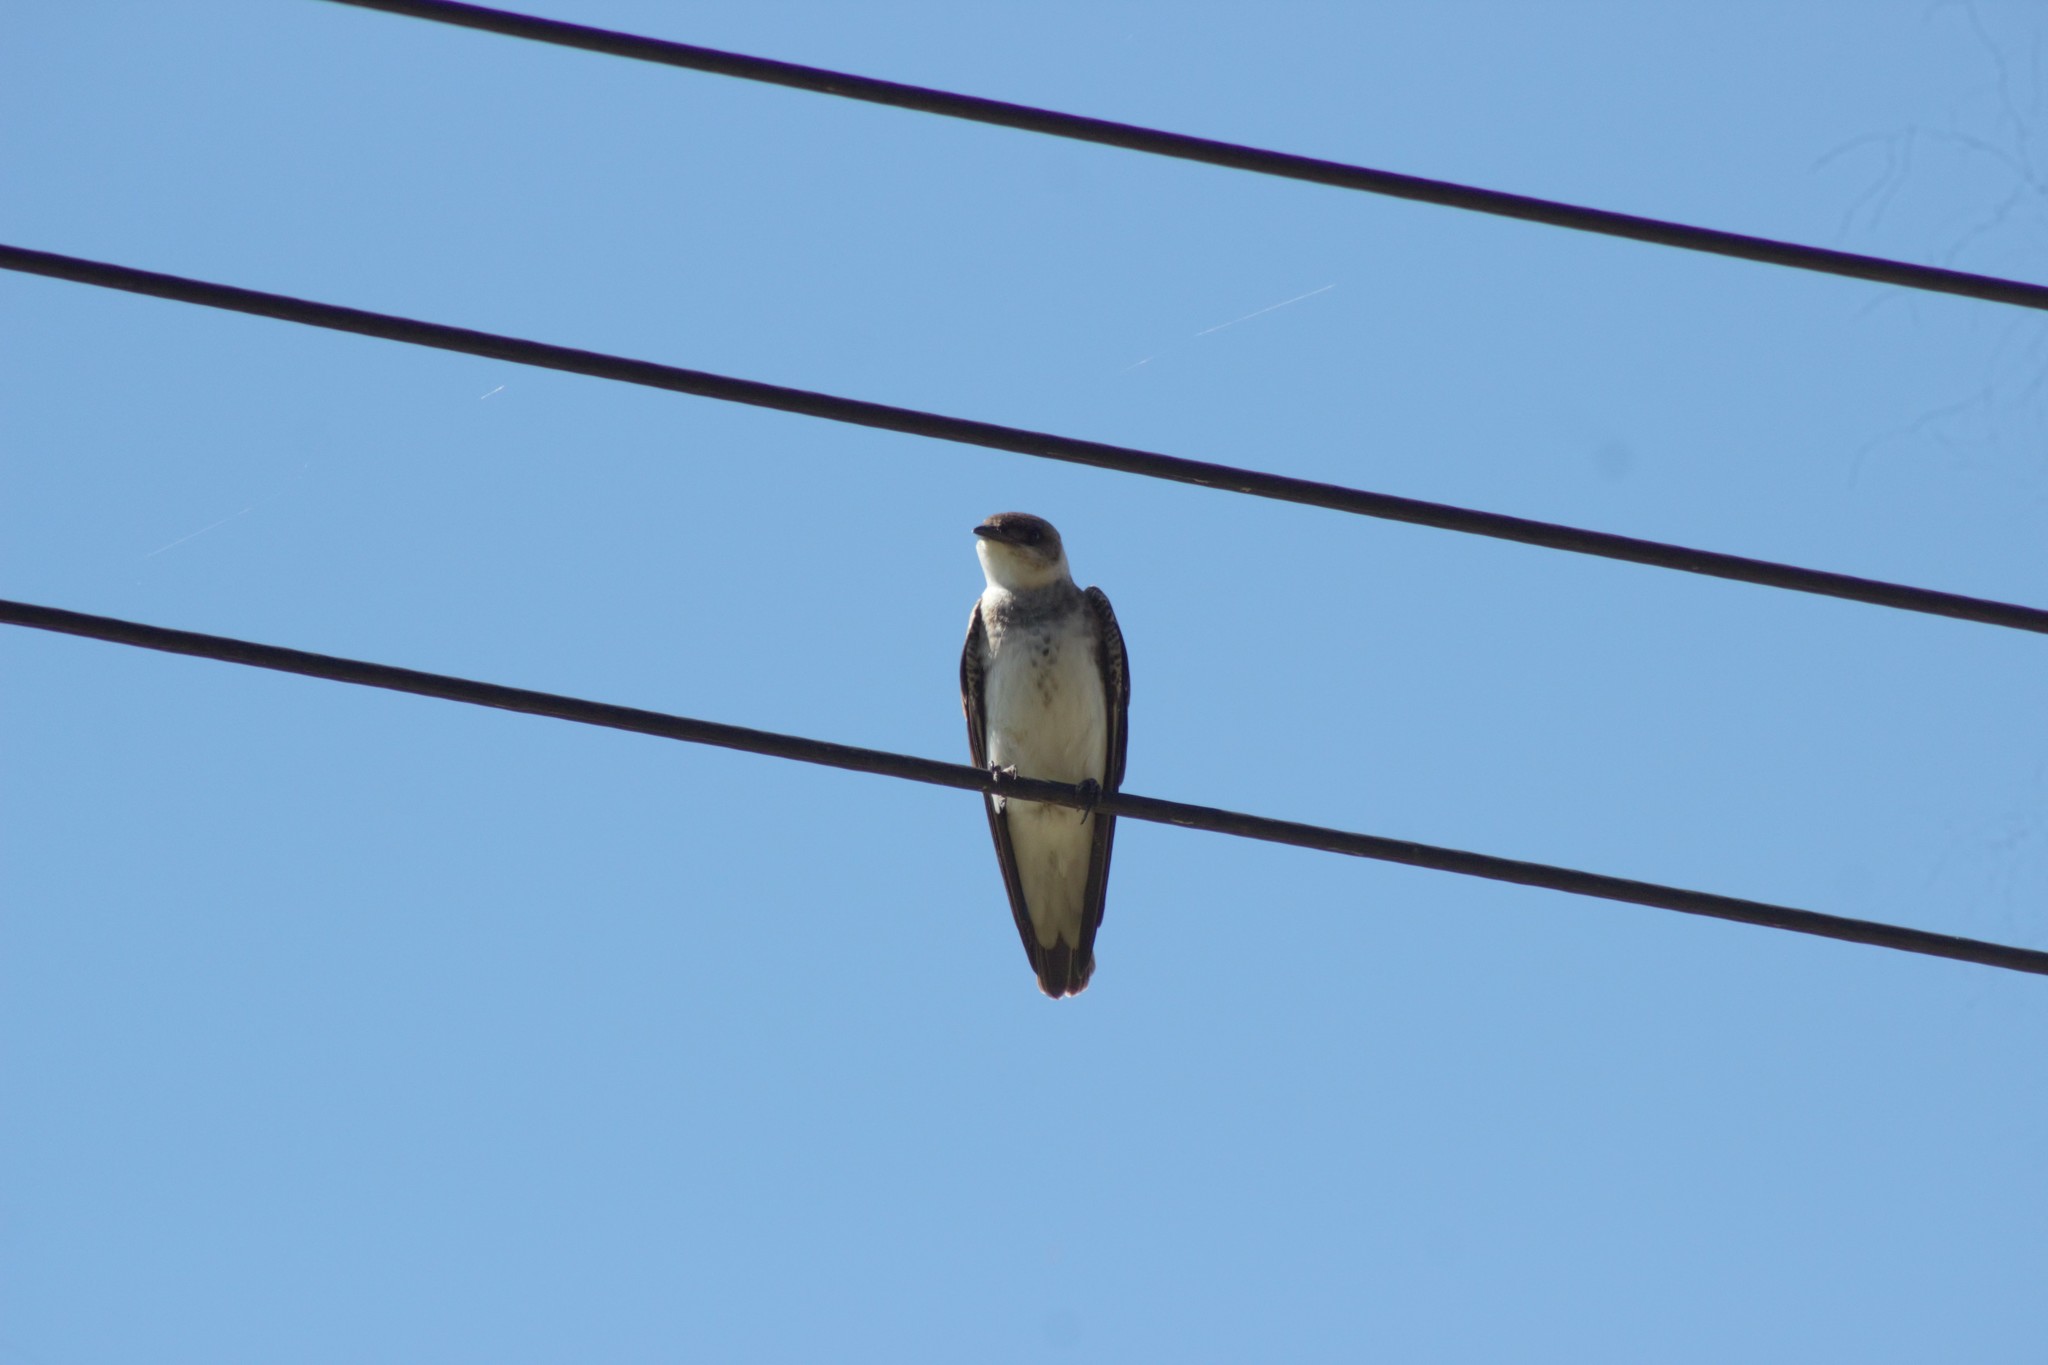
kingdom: Animalia
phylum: Chordata
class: Aves
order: Passeriformes
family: Hirundinidae
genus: Progne
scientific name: Progne tapera
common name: Brown-chested martin
